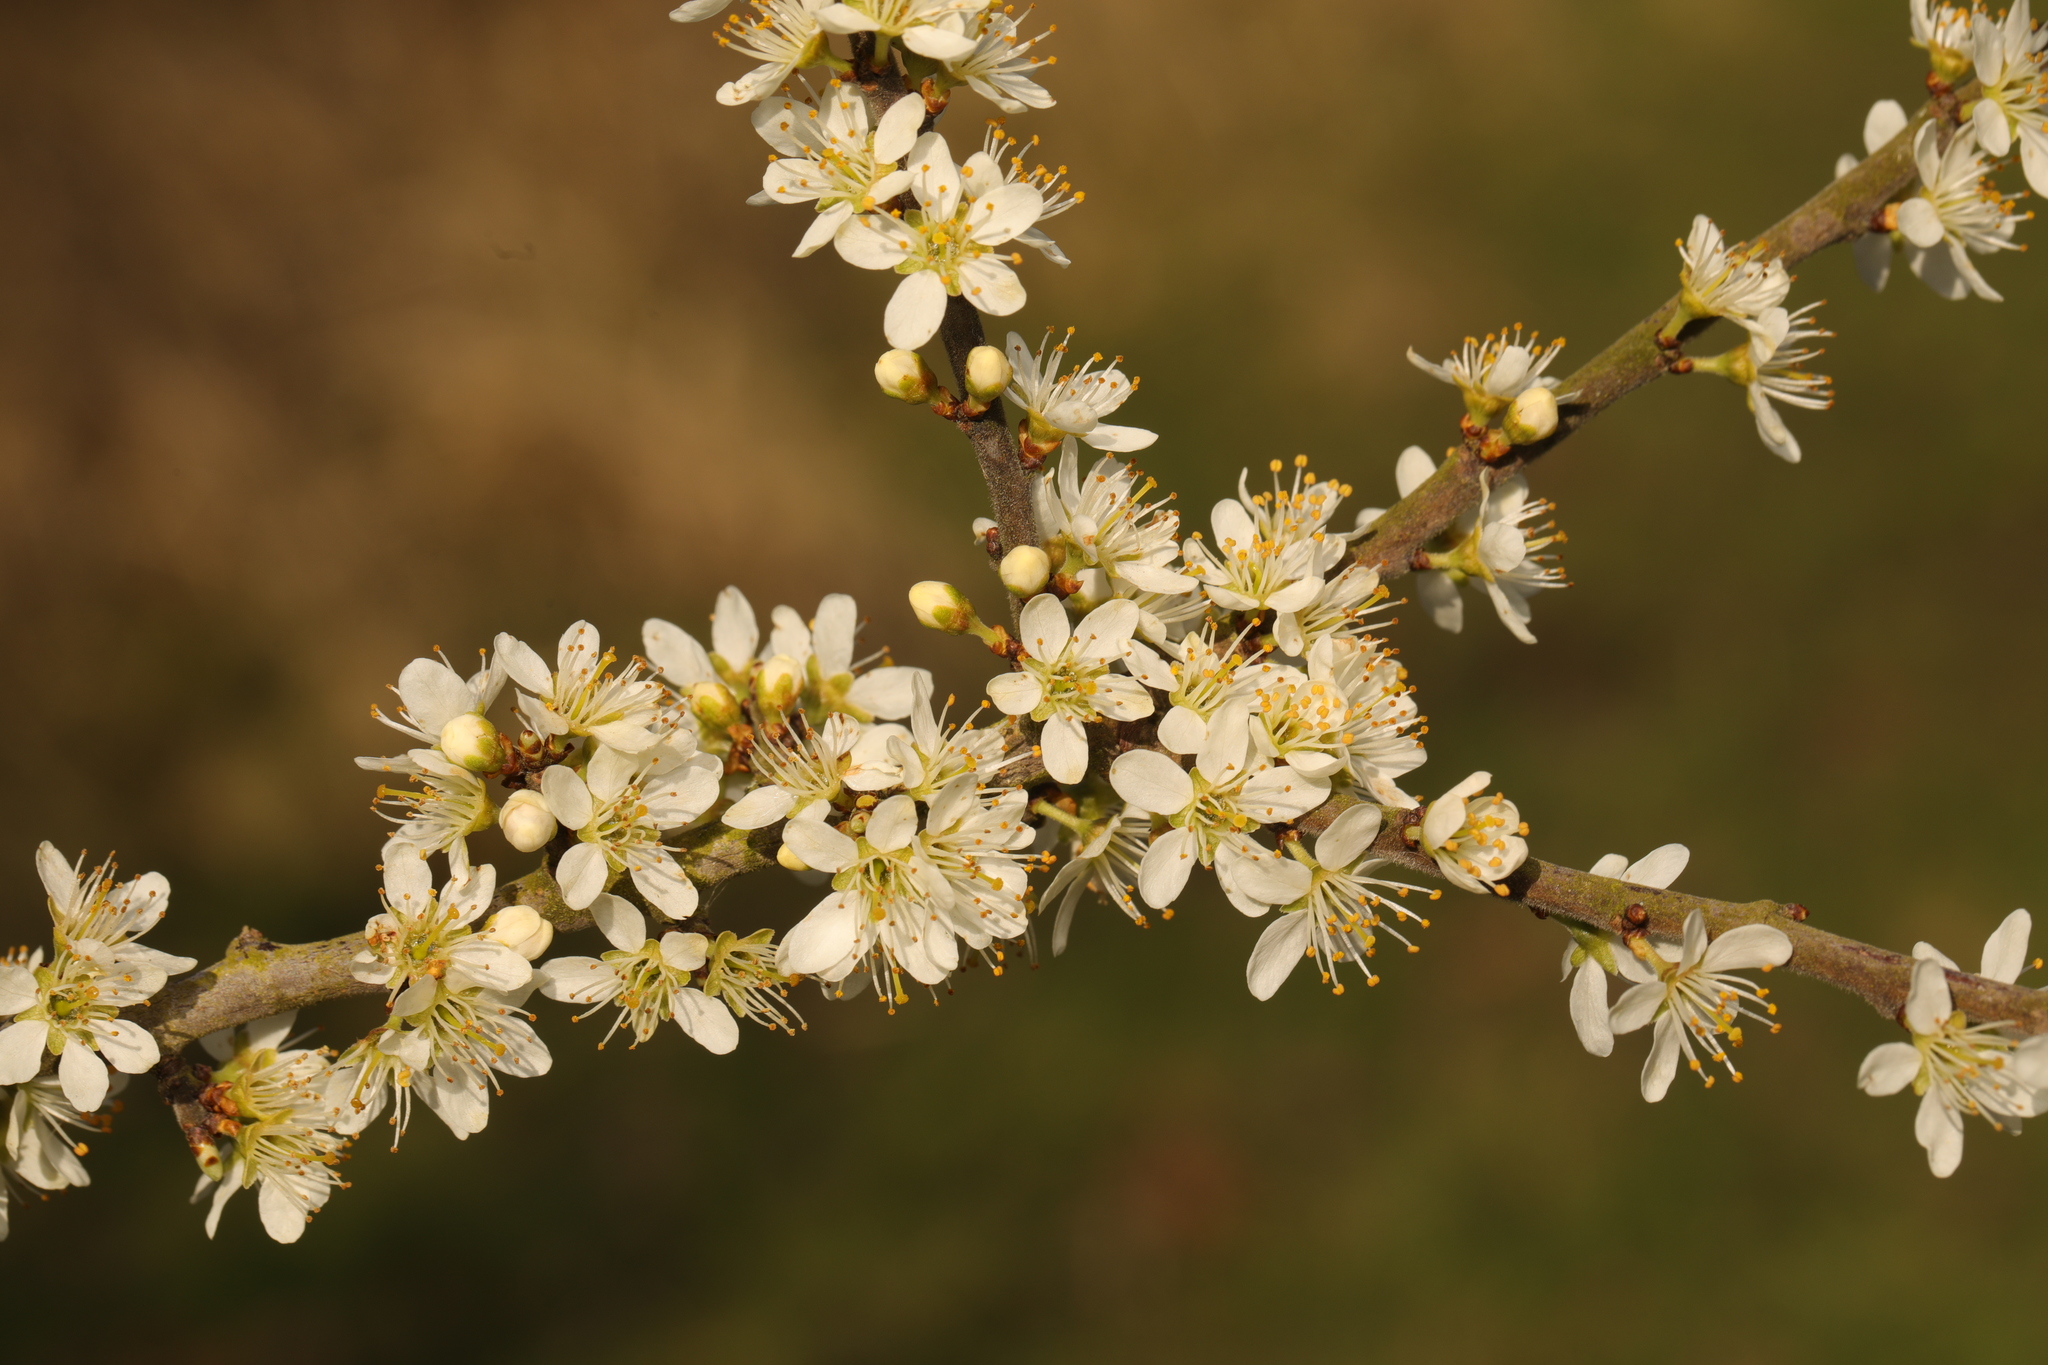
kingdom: Plantae
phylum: Tracheophyta
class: Magnoliopsida
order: Rosales
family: Rosaceae
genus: Prunus
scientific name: Prunus spinosa
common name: Blackthorn
